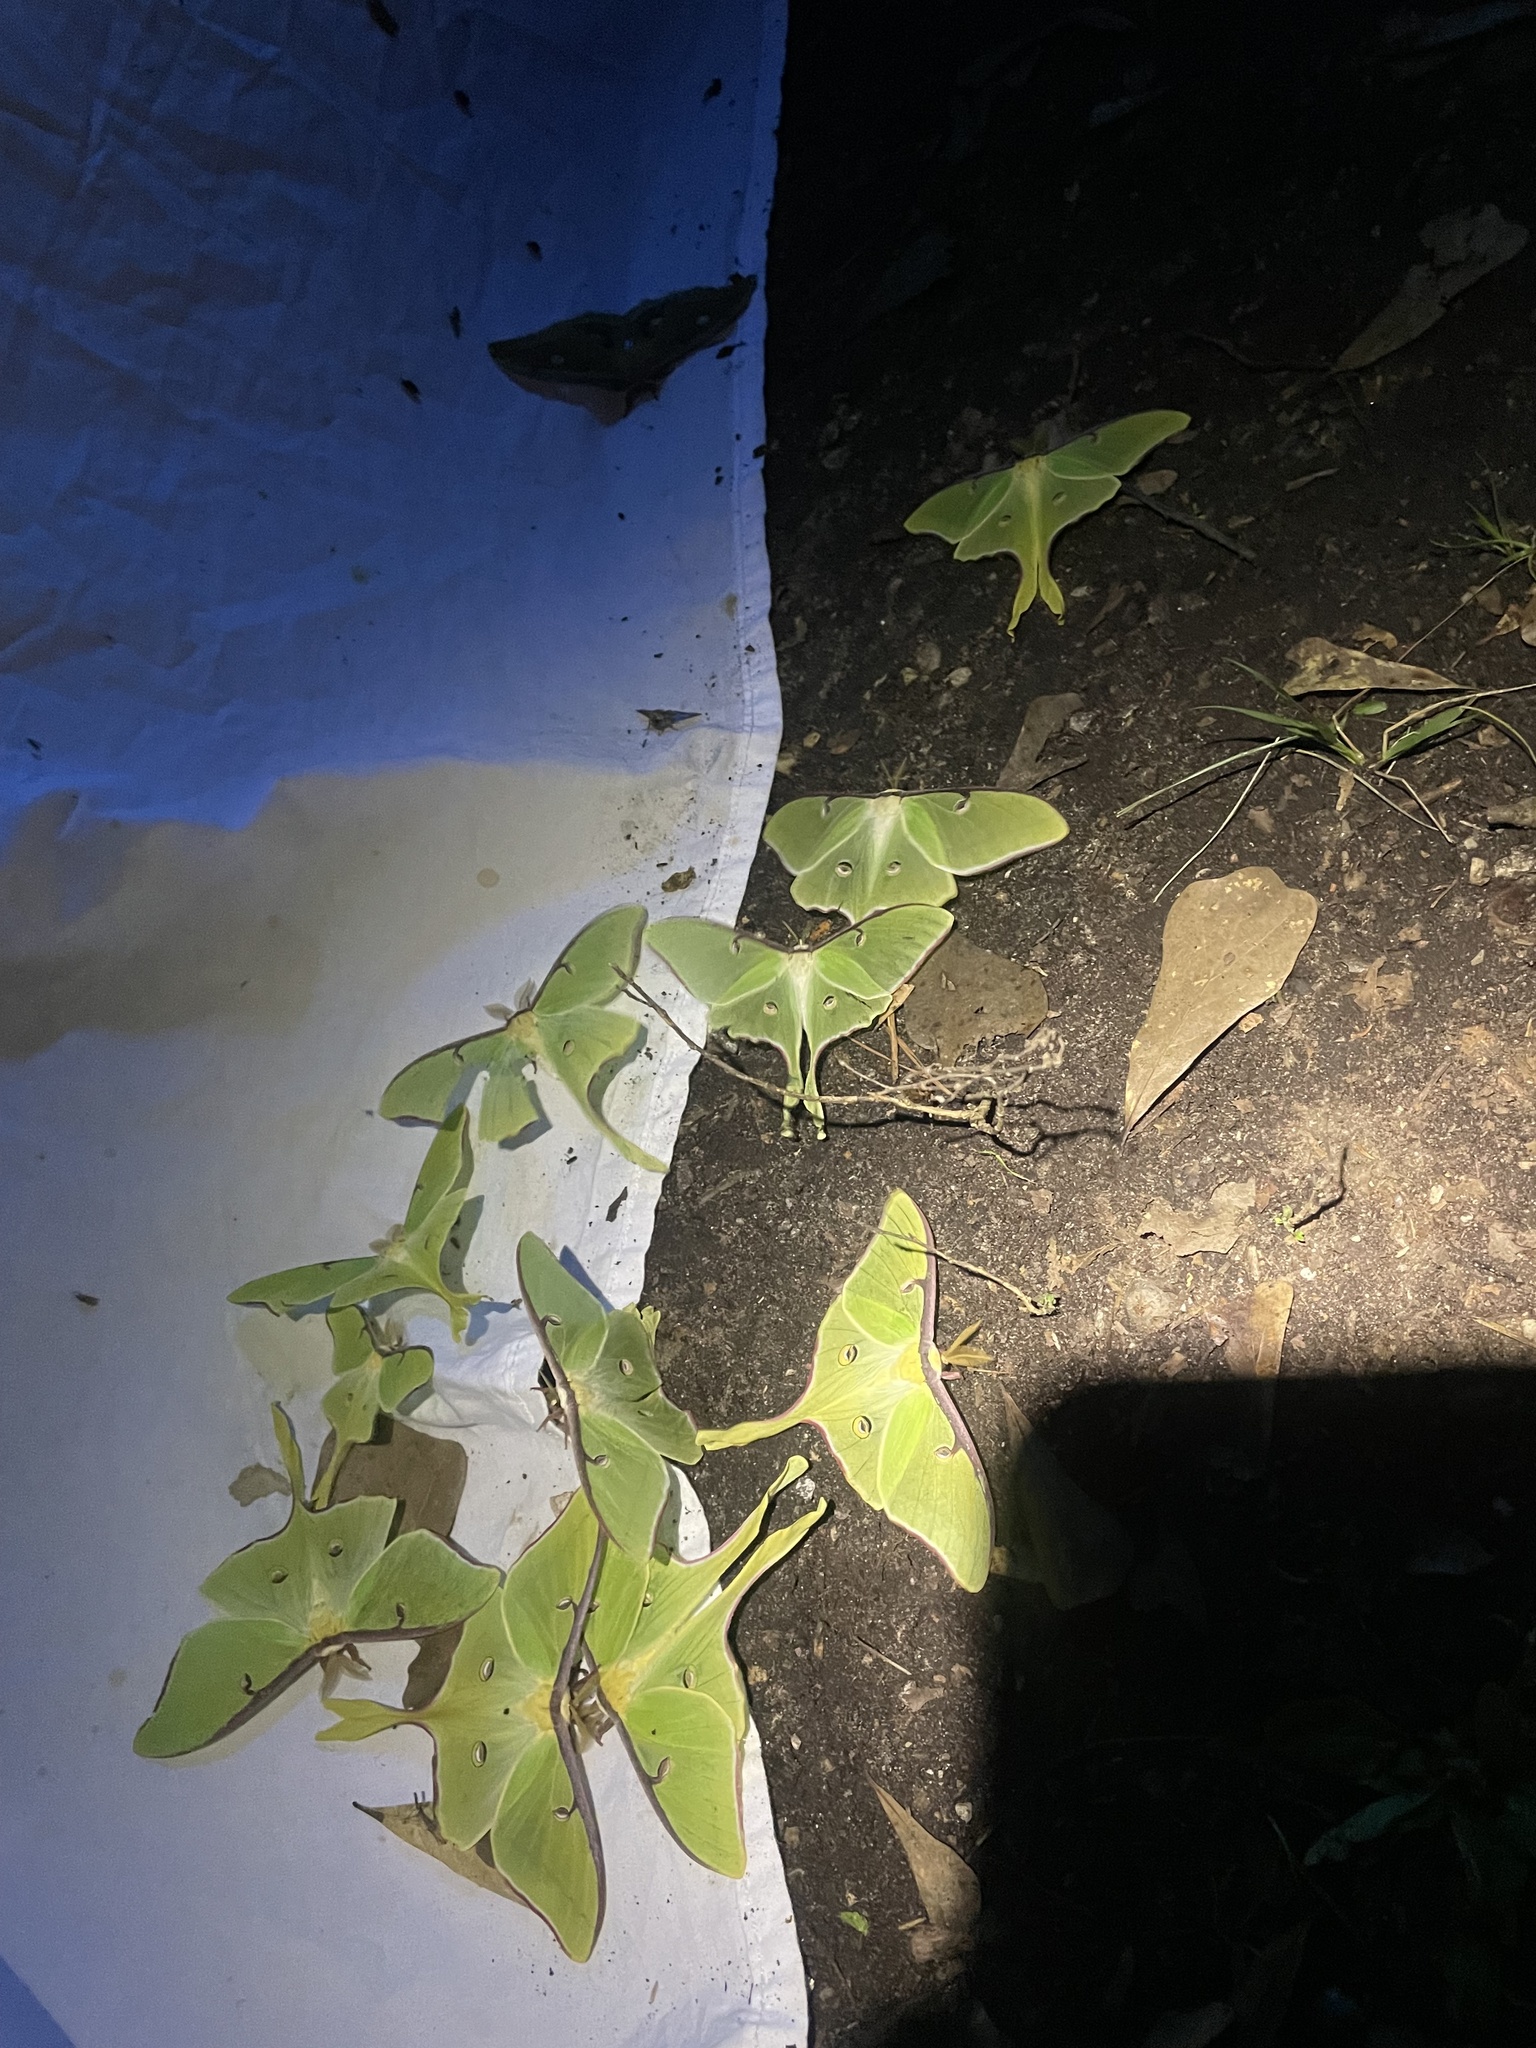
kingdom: Animalia
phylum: Arthropoda
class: Insecta
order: Lepidoptera
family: Saturniidae
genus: Actias
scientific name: Actias luna
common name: Luna moth
